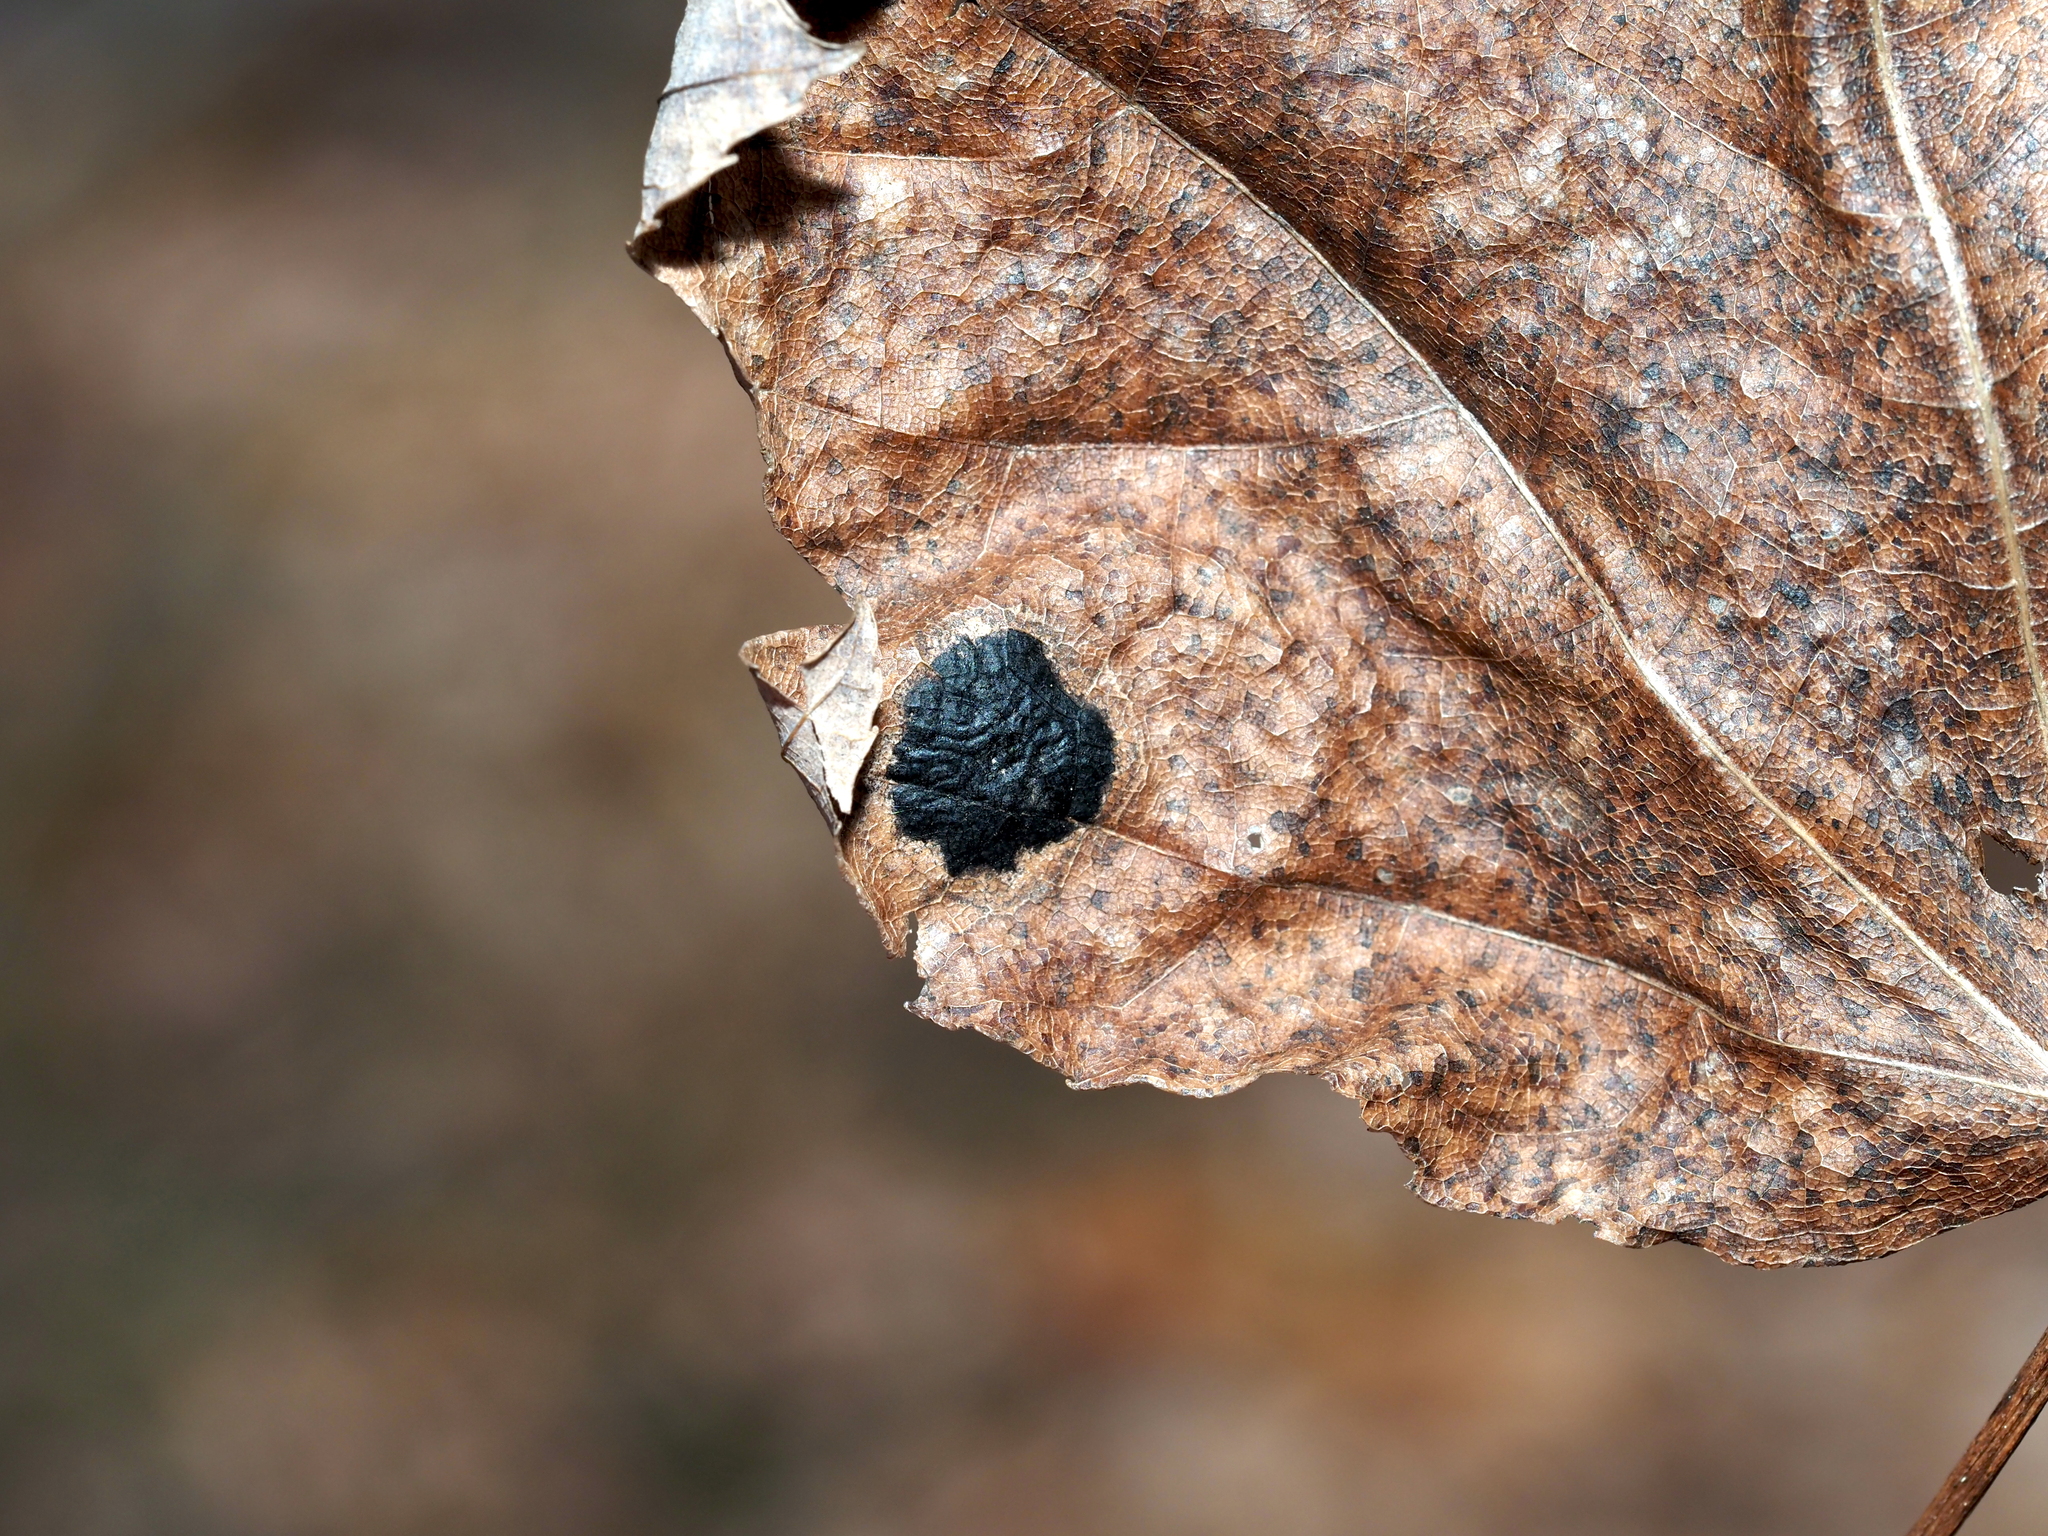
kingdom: Fungi
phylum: Ascomycota
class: Leotiomycetes
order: Rhytismatales
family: Rhytismataceae
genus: Rhytisma
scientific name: Rhytisma acerinum
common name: European tar spot
